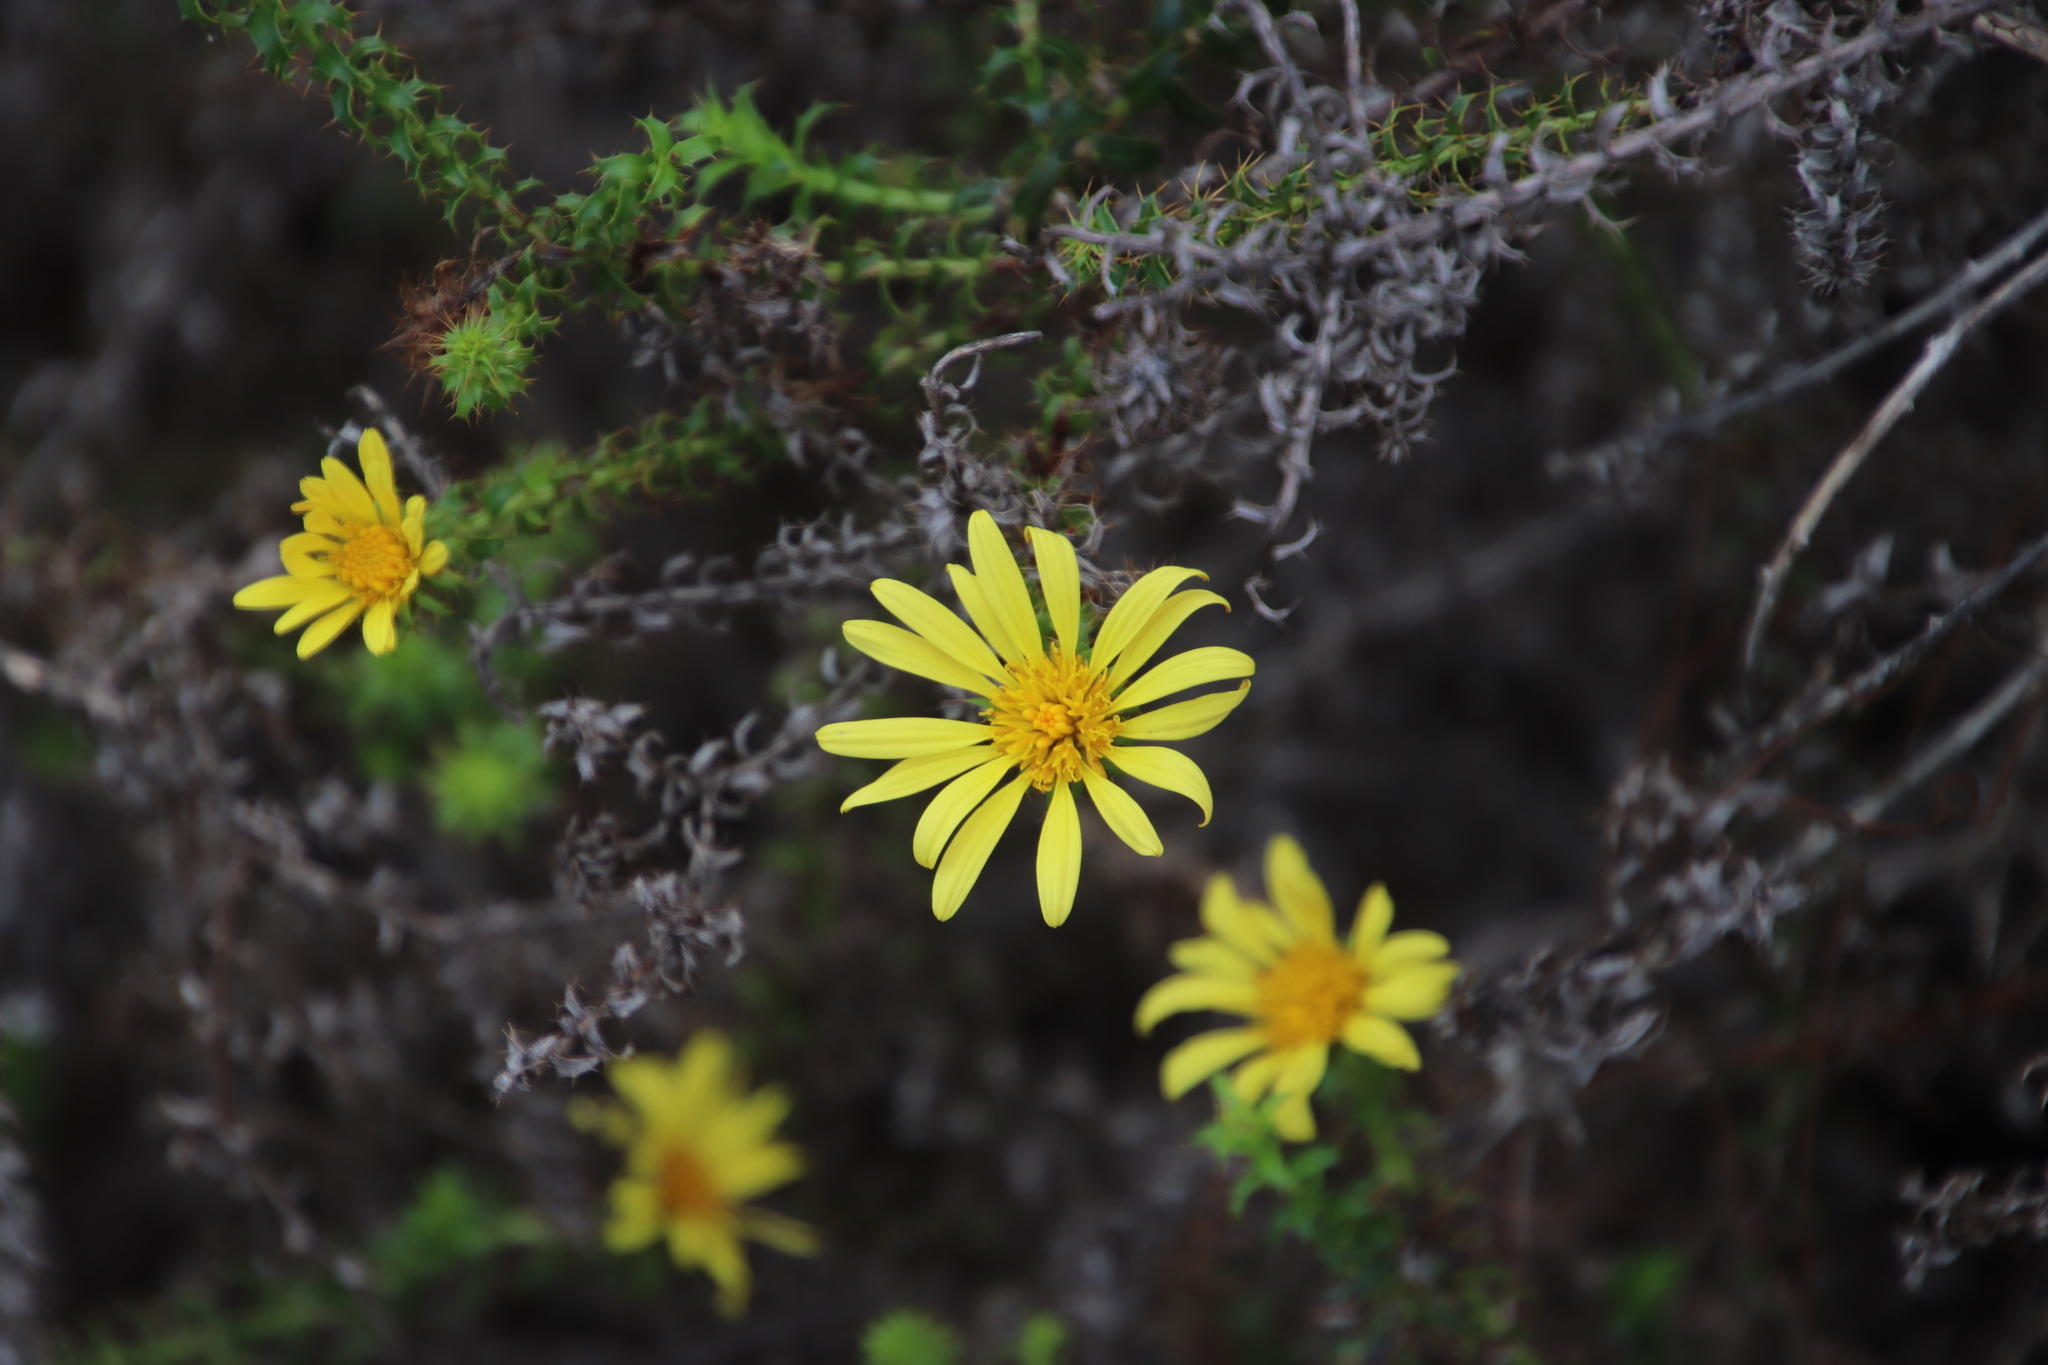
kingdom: Plantae
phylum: Tracheophyta
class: Magnoliopsida
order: Asterales
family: Asteraceae
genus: Cullumia
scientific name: Cullumia setosa
